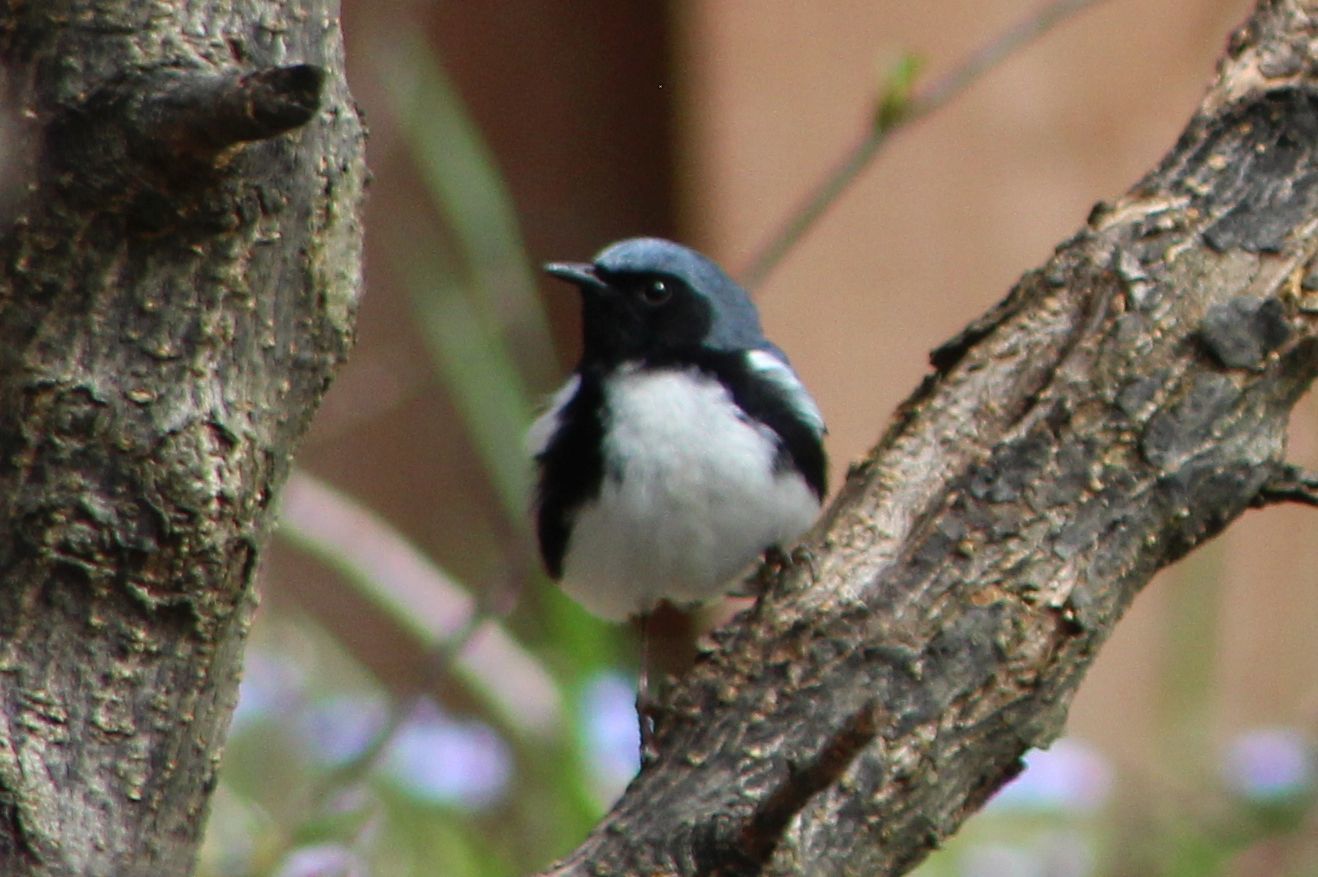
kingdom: Animalia
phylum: Chordata
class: Aves
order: Passeriformes
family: Parulidae
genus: Setophaga
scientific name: Setophaga caerulescens
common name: Black-throated blue warbler
